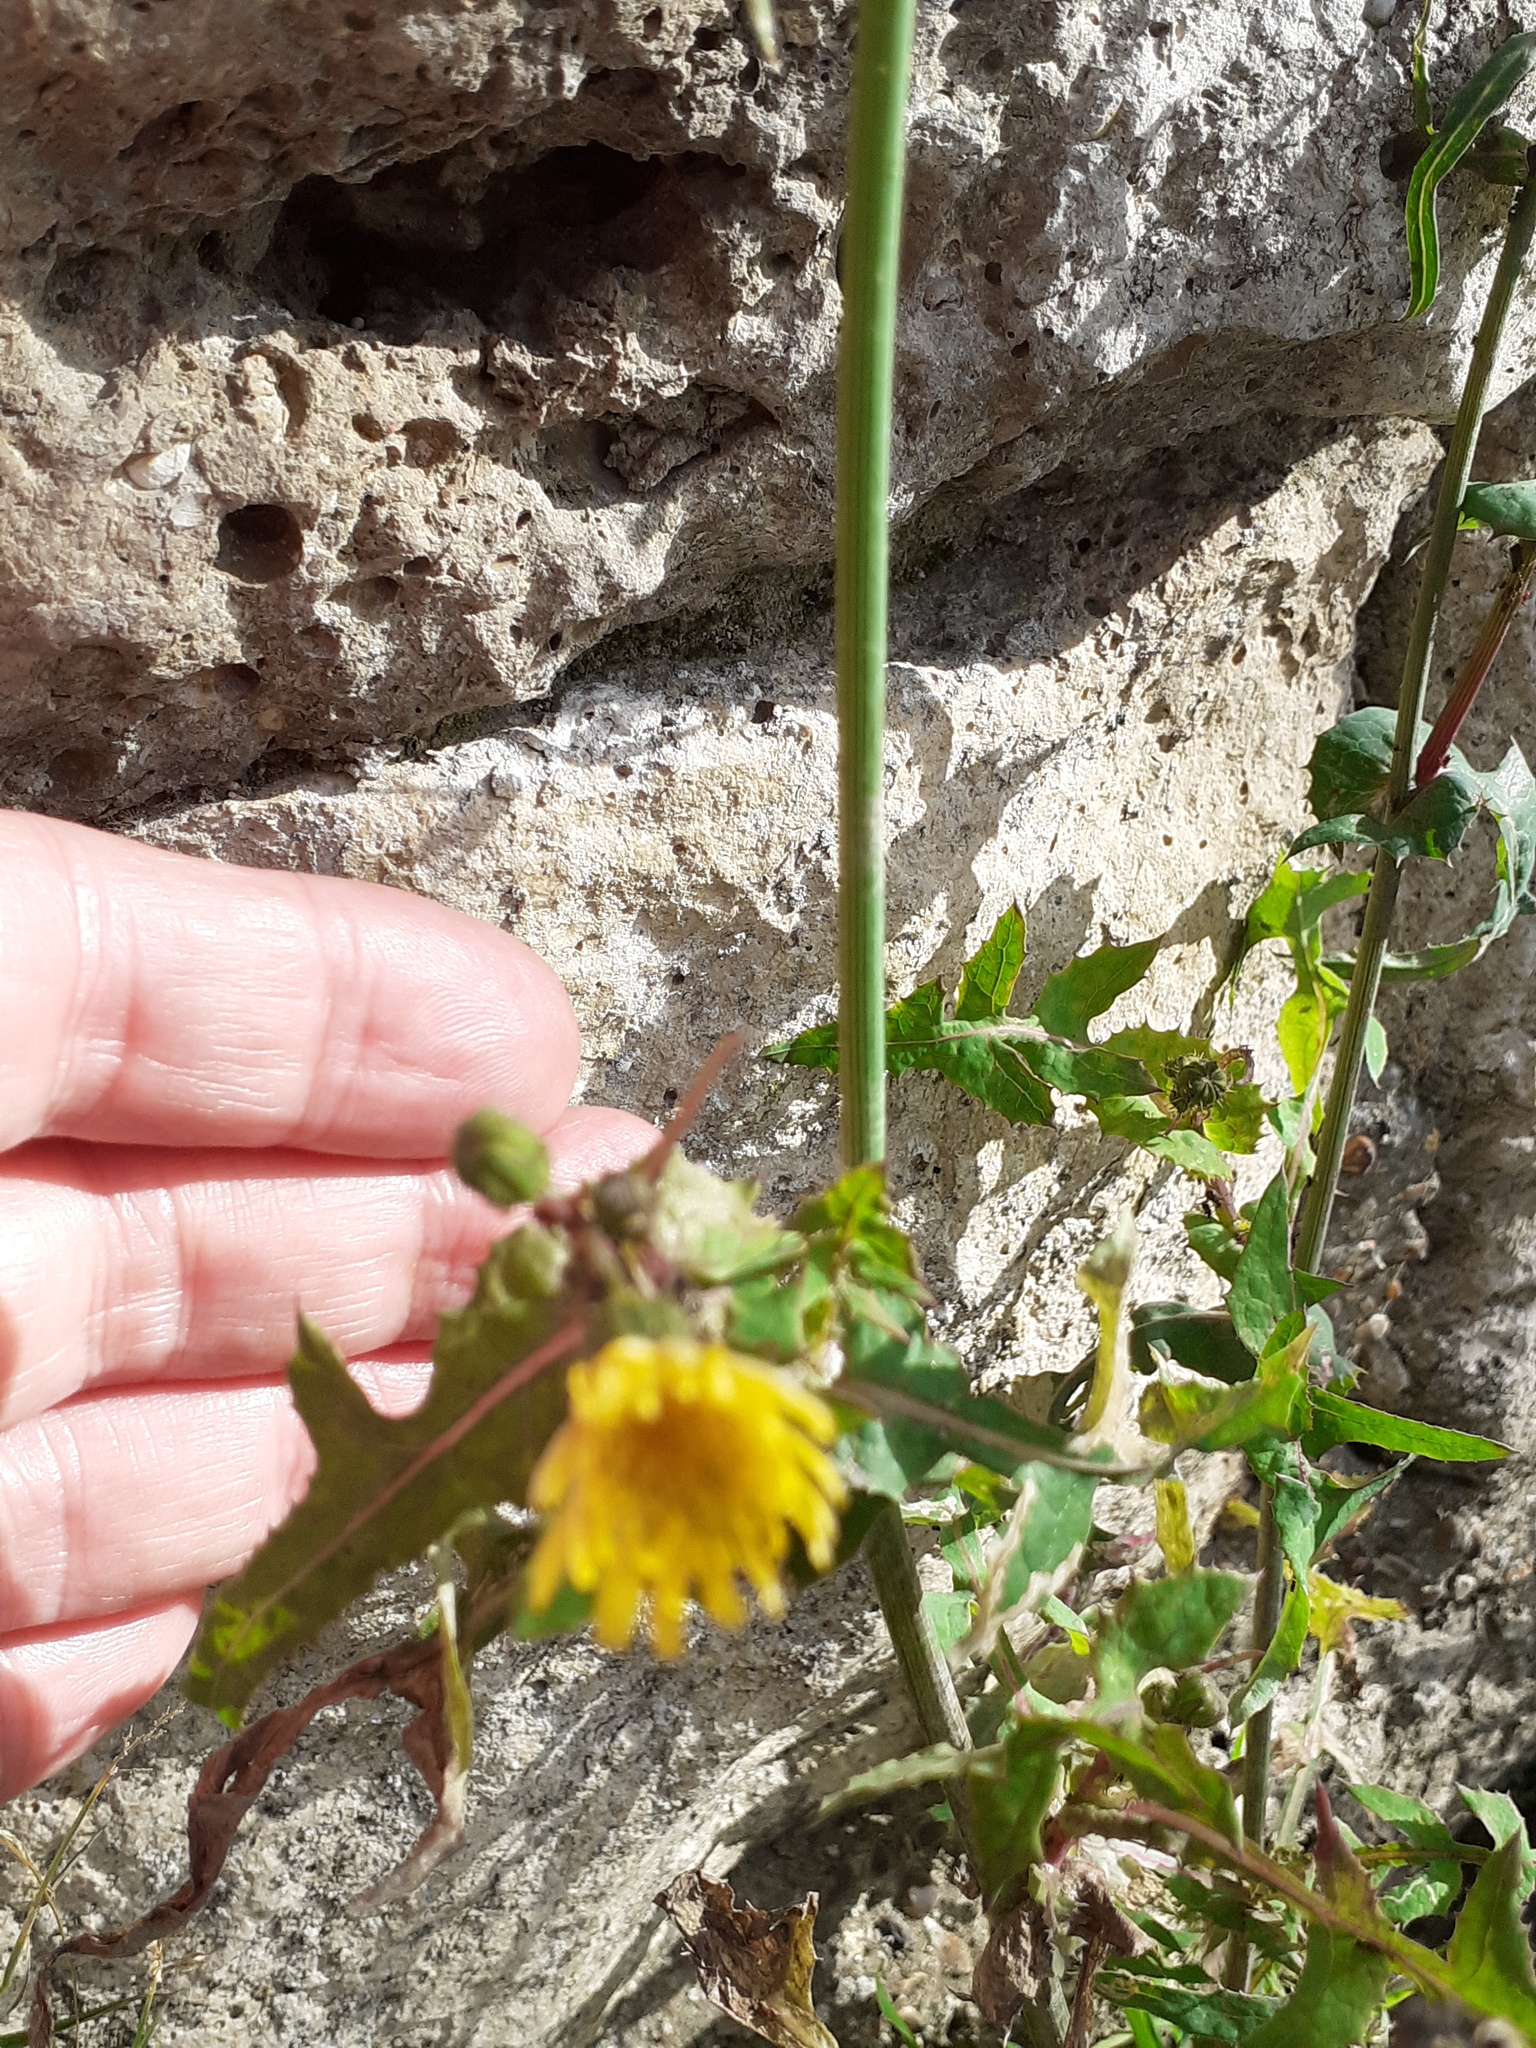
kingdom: Plantae
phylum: Tracheophyta
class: Magnoliopsida
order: Asterales
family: Asteraceae
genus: Sonchus
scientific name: Sonchus oleraceus
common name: Common sowthistle
